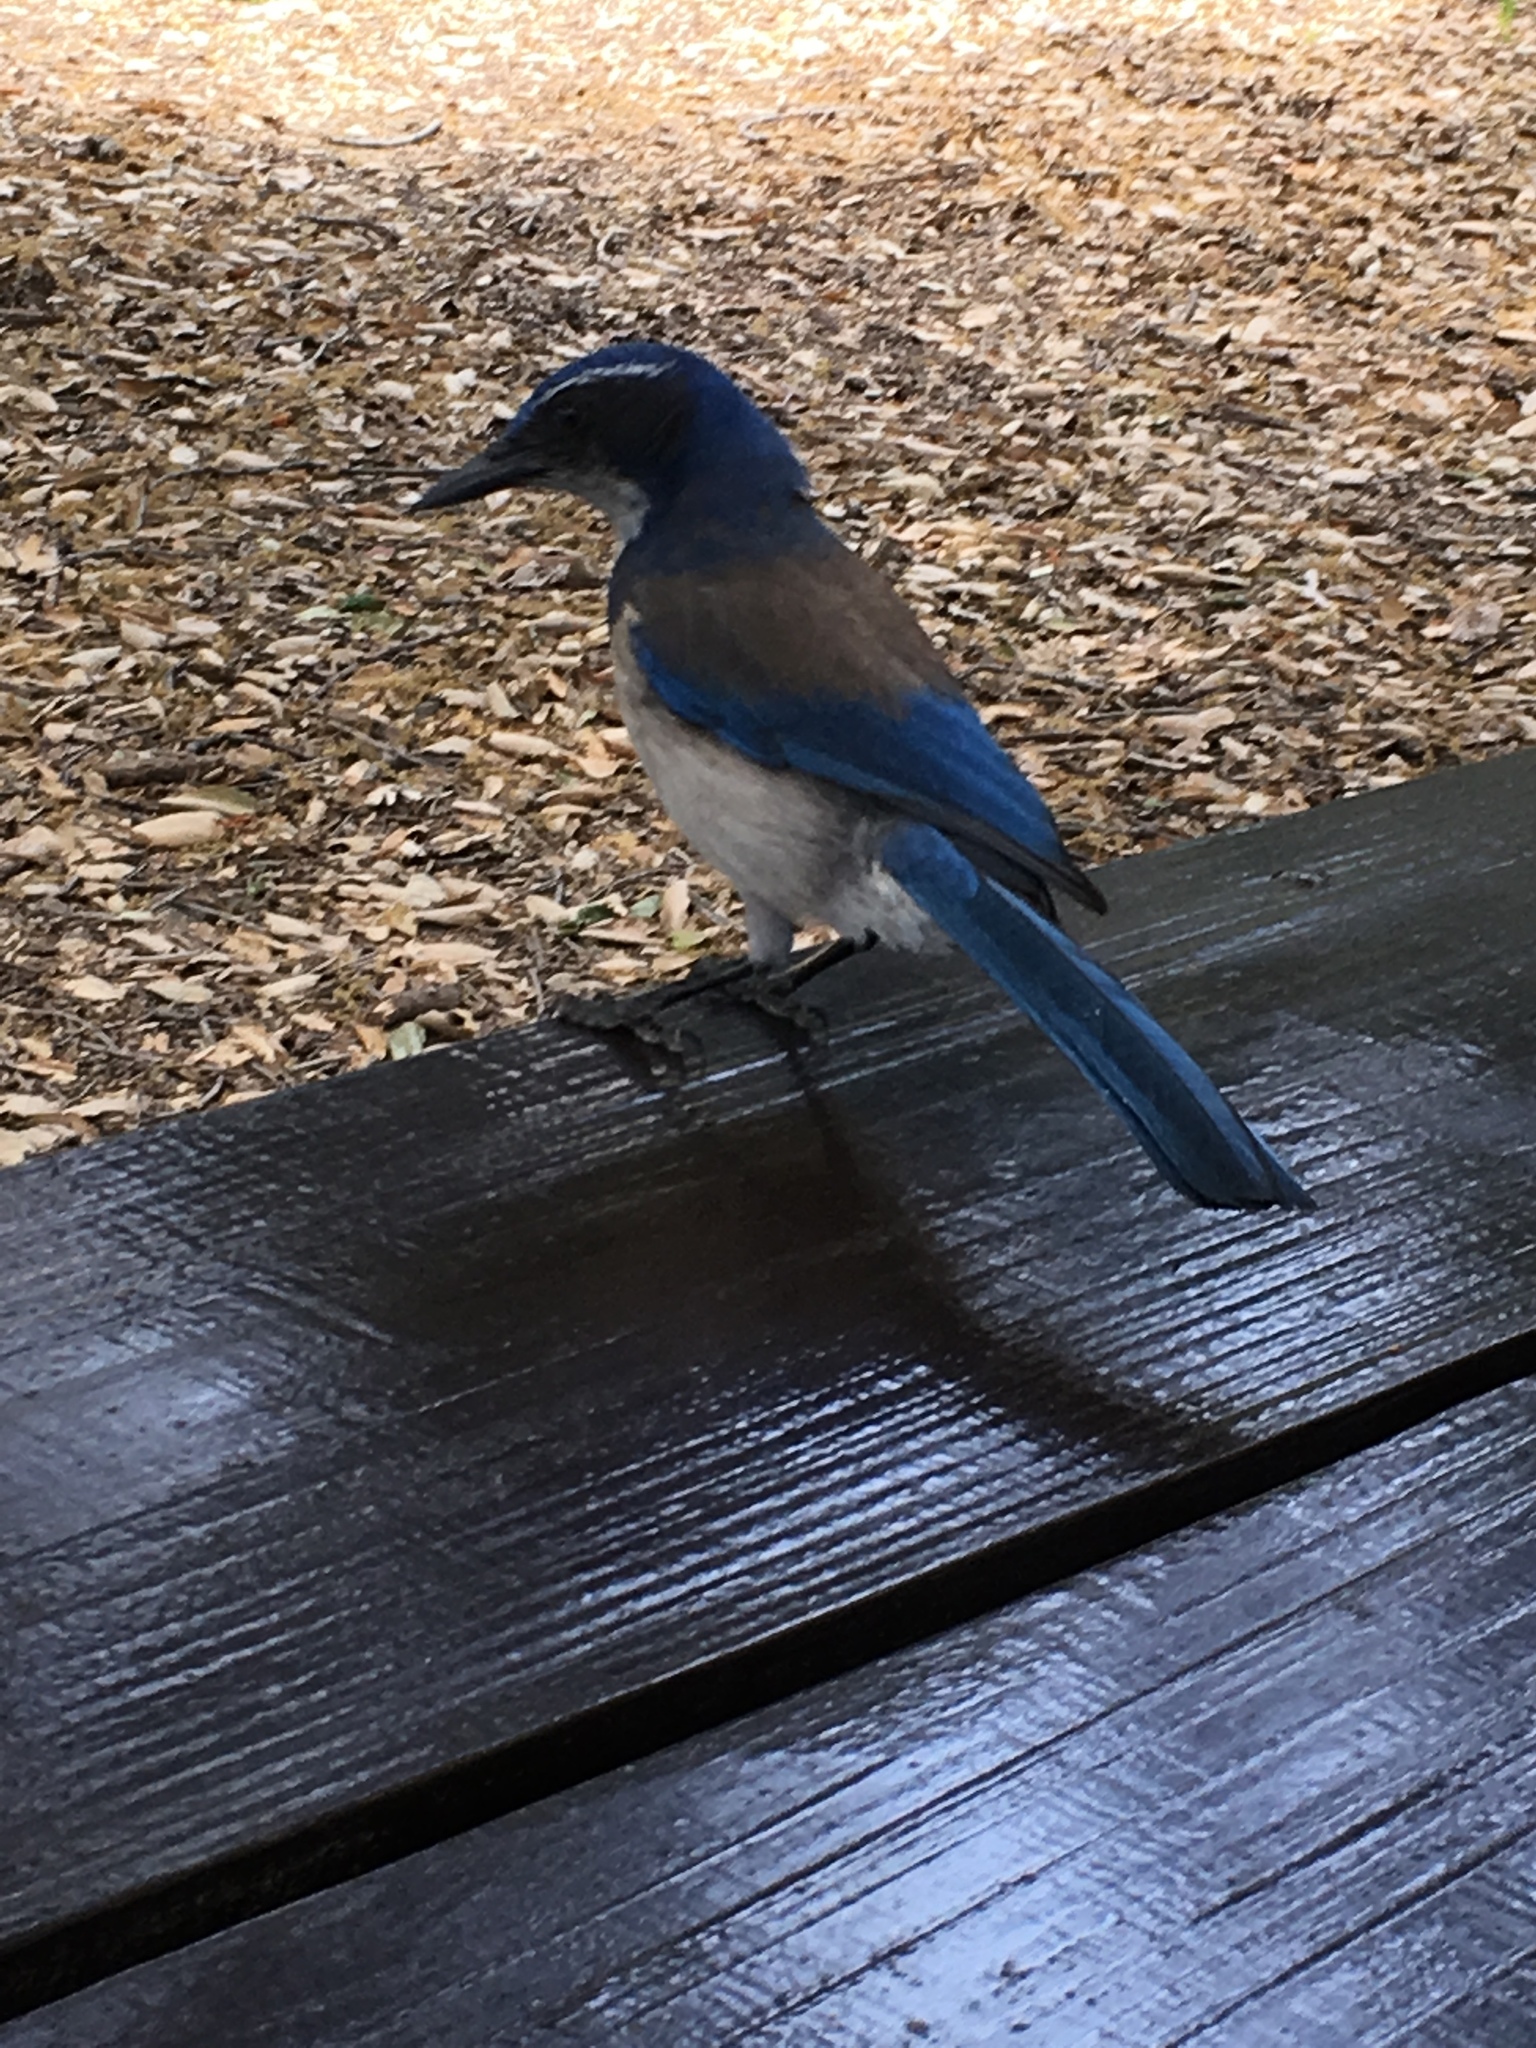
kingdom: Animalia
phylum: Chordata
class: Aves
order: Passeriformes
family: Corvidae
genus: Aphelocoma
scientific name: Aphelocoma californica
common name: California scrub-jay
